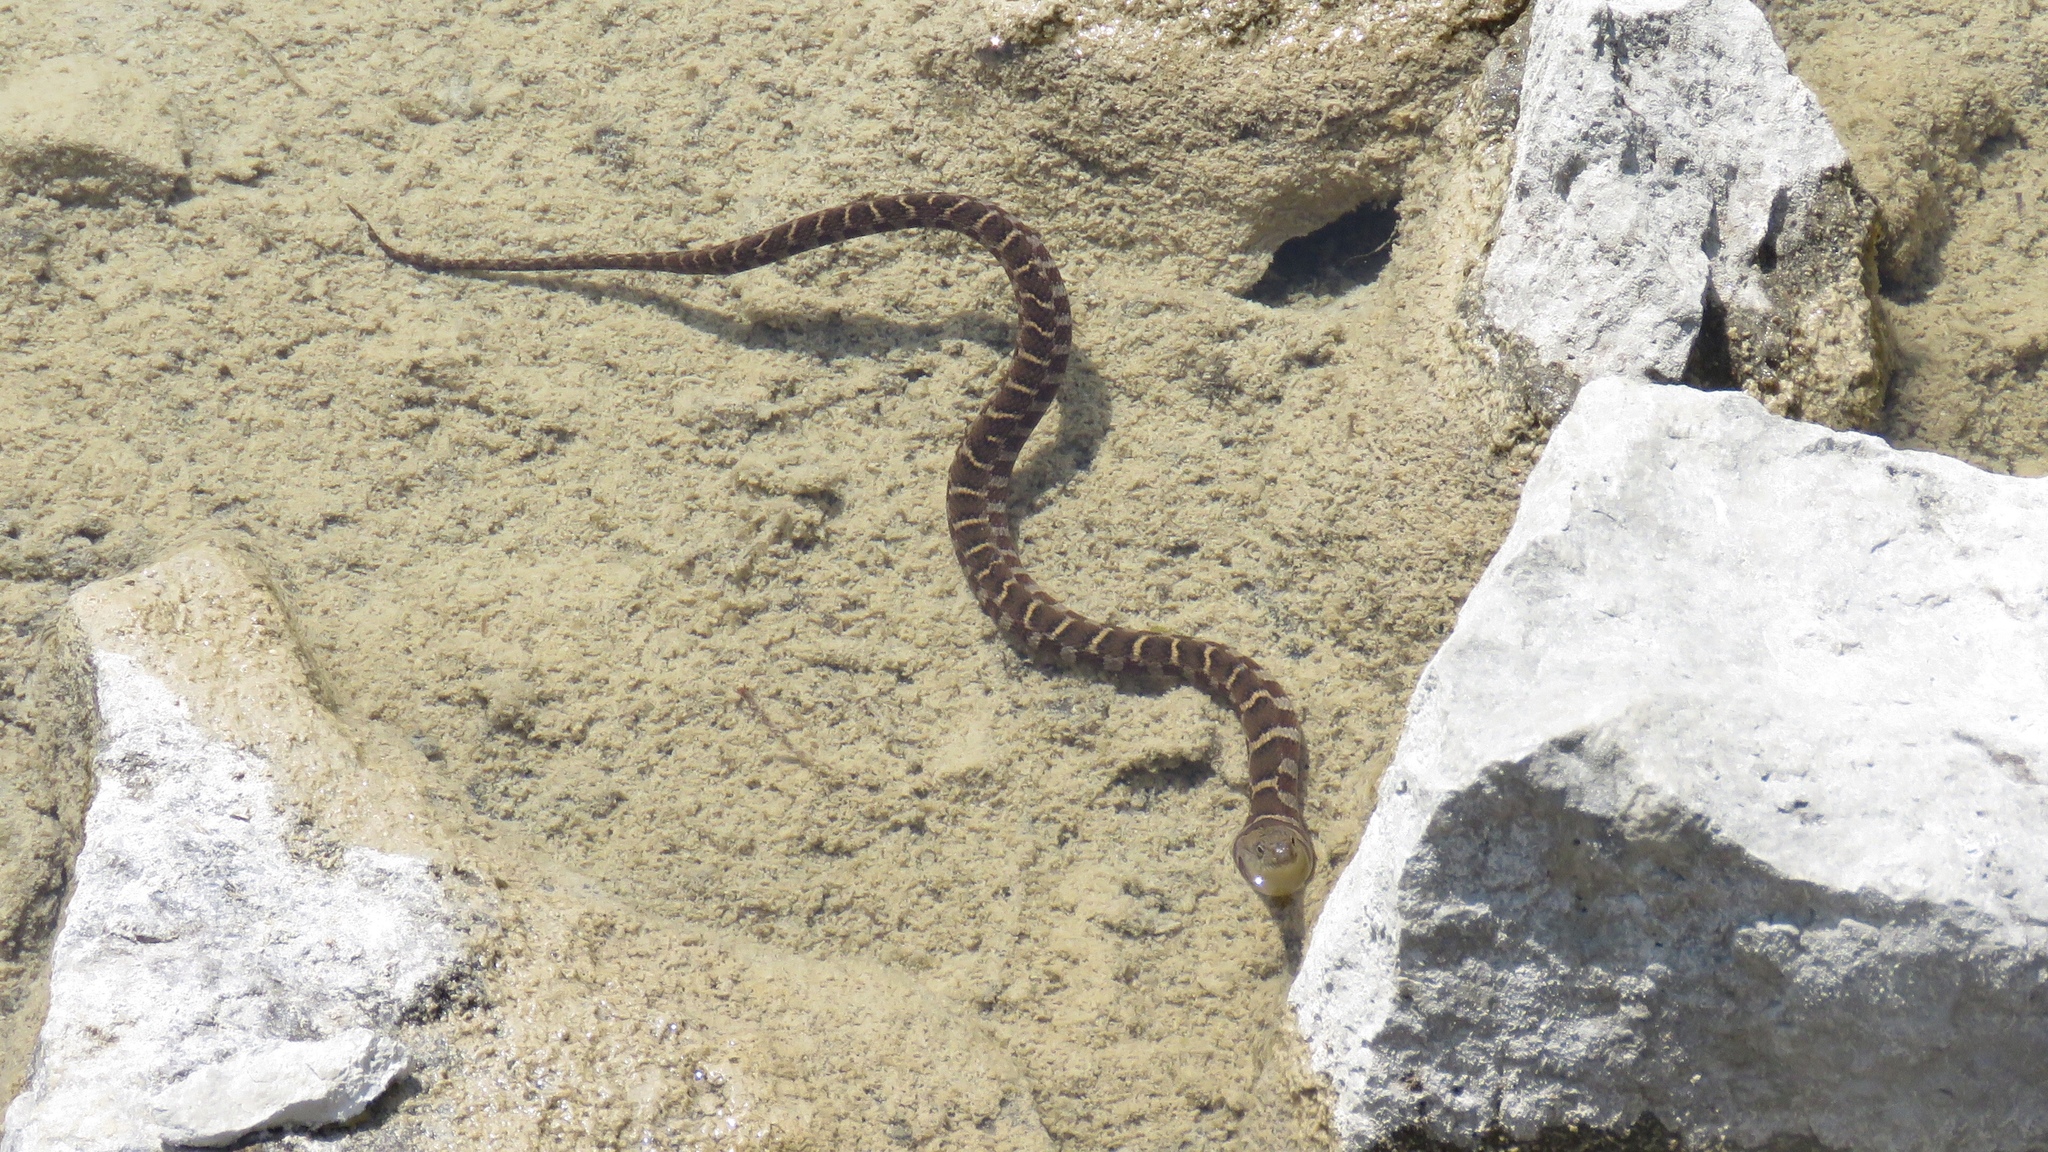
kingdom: Animalia
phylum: Chordata
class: Squamata
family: Colubridae
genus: Nerodia
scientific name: Nerodia sipedon
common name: Northern water snake
